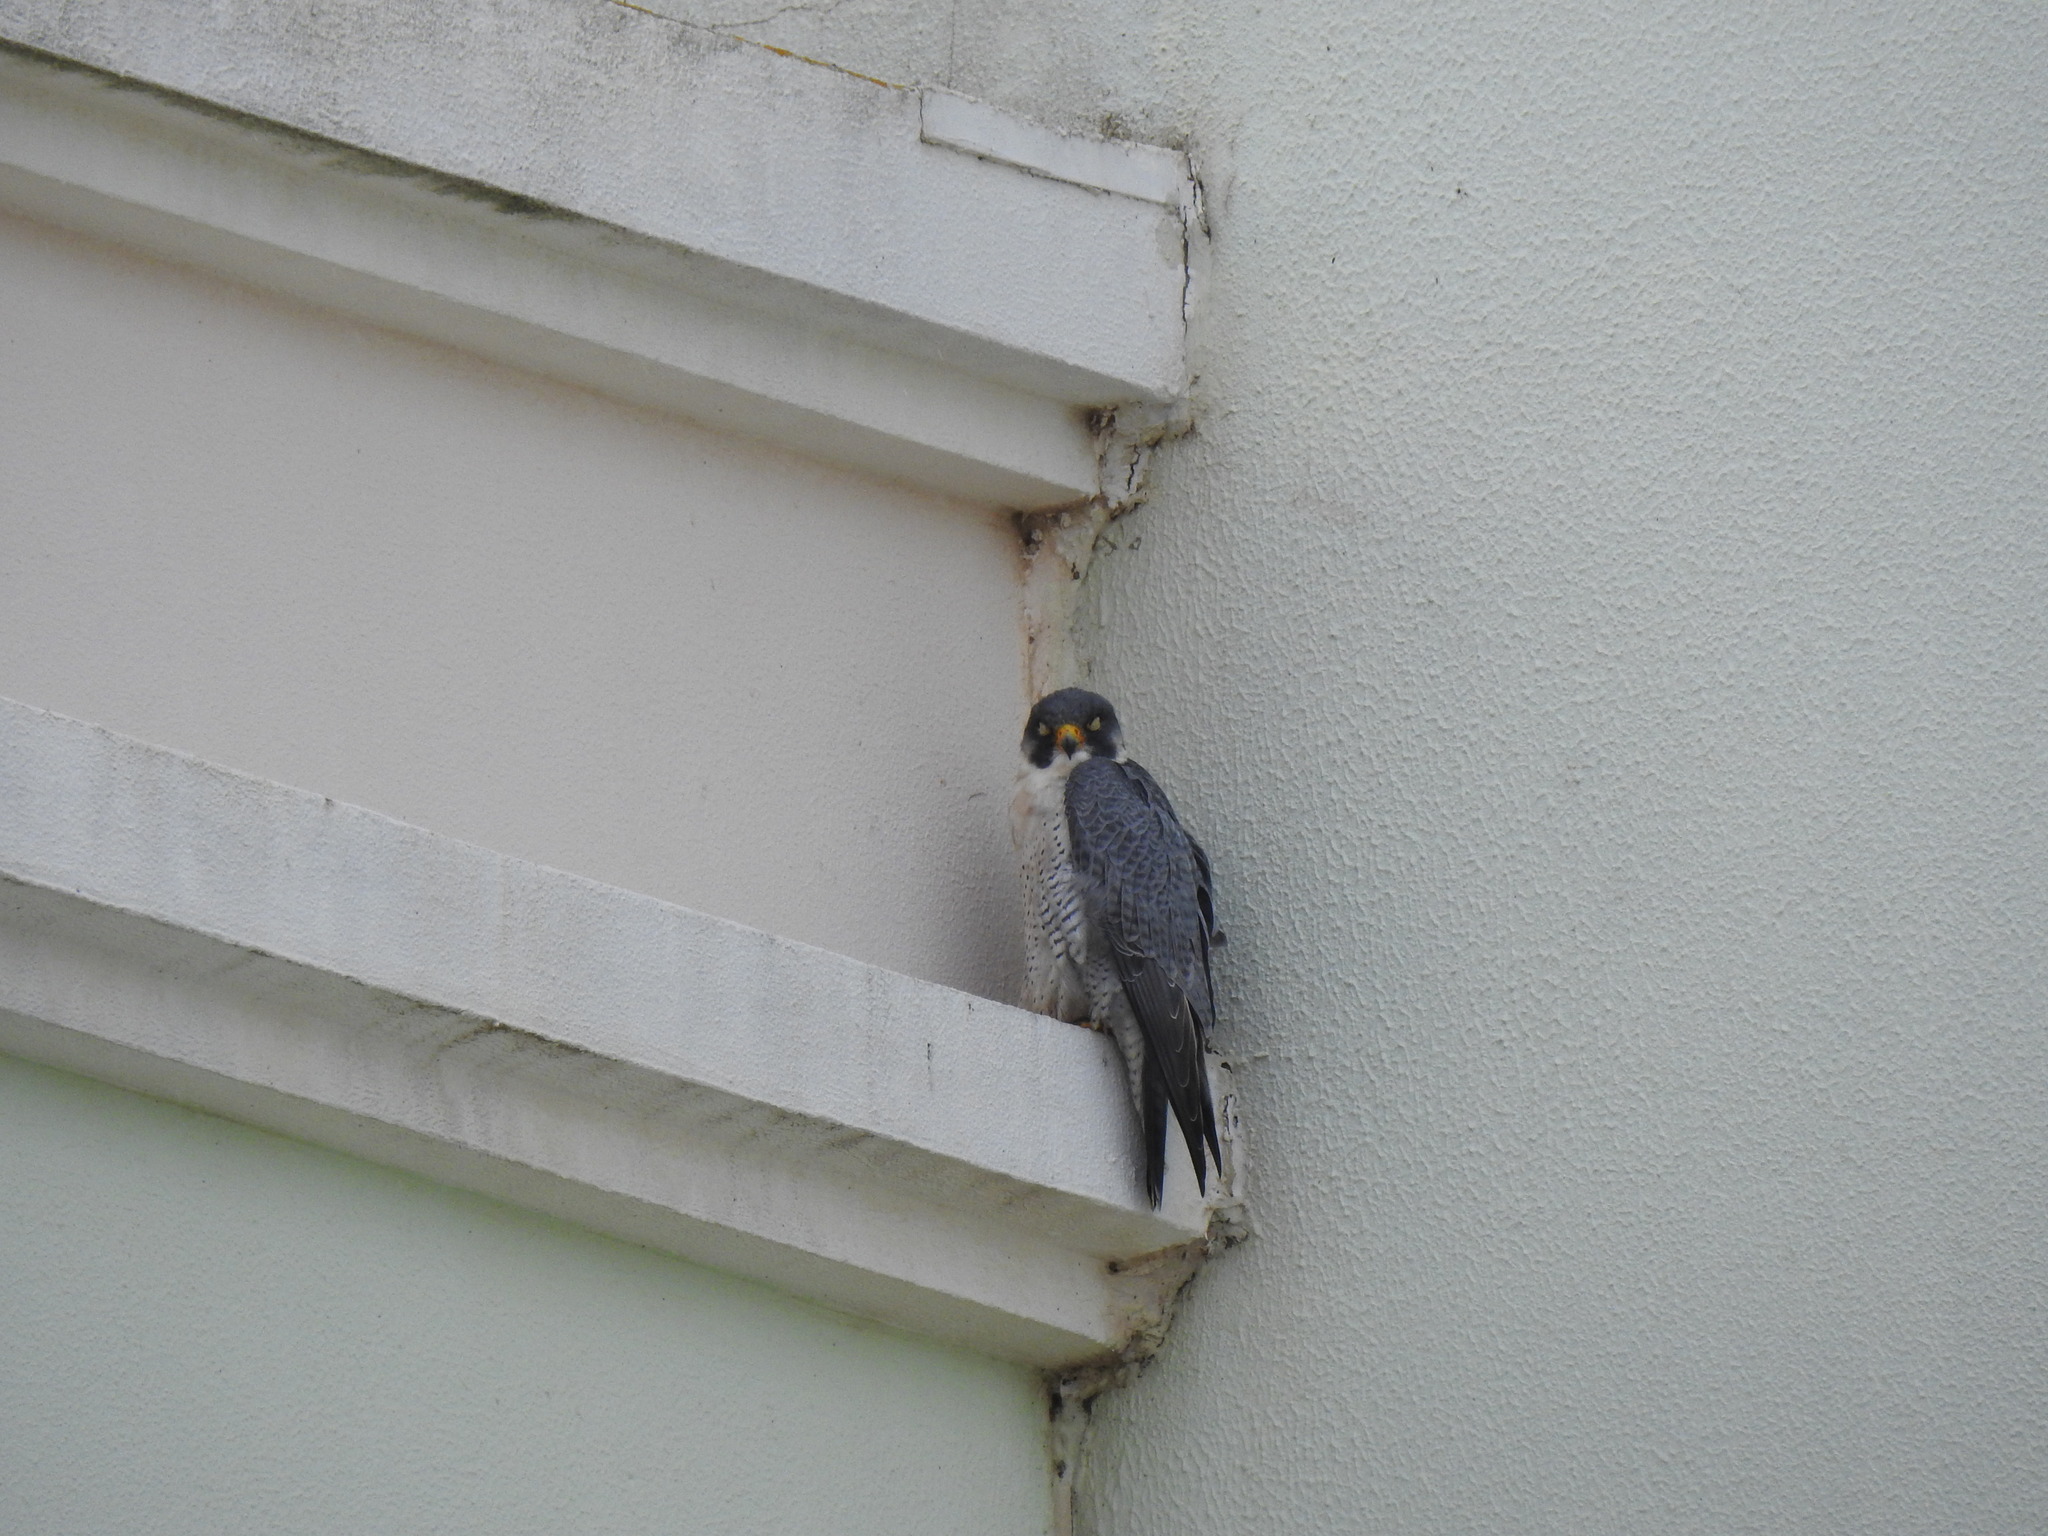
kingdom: Animalia
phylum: Chordata
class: Aves
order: Falconiformes
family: Falconidae
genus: Falco
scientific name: Falco peregrinus
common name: Peregrine falcon
